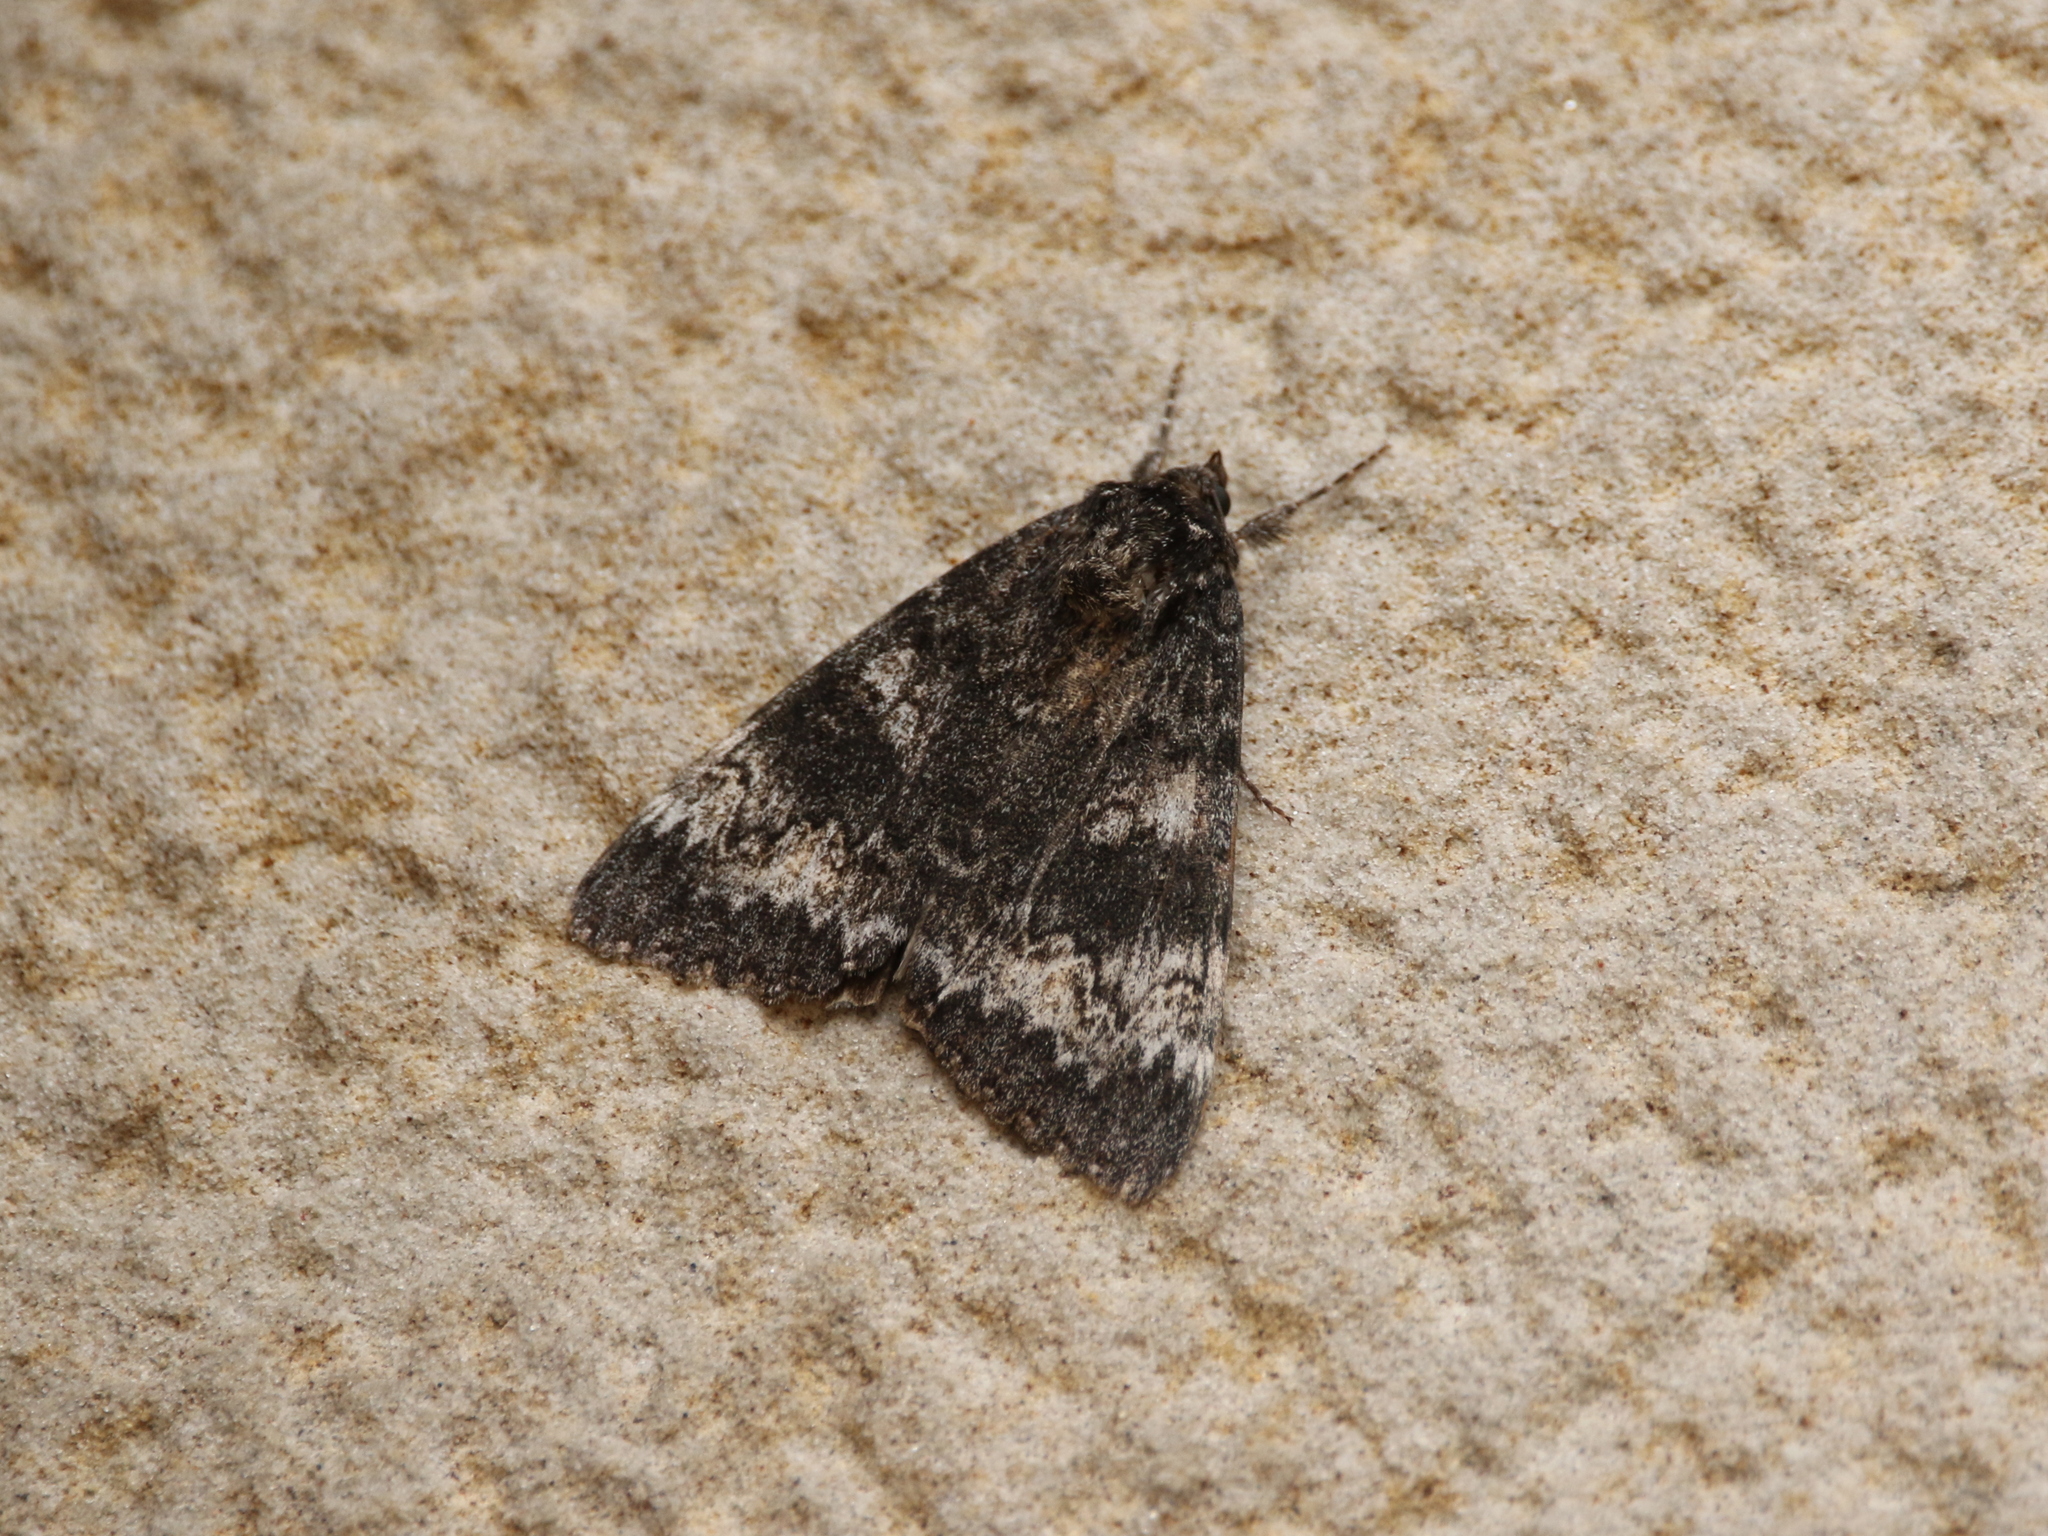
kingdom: Animalia
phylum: Arthropoda
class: Insecta
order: Lepidoptera
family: Erebidae
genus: Catocala
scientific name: Catocala briseis
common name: Briseis underwing
